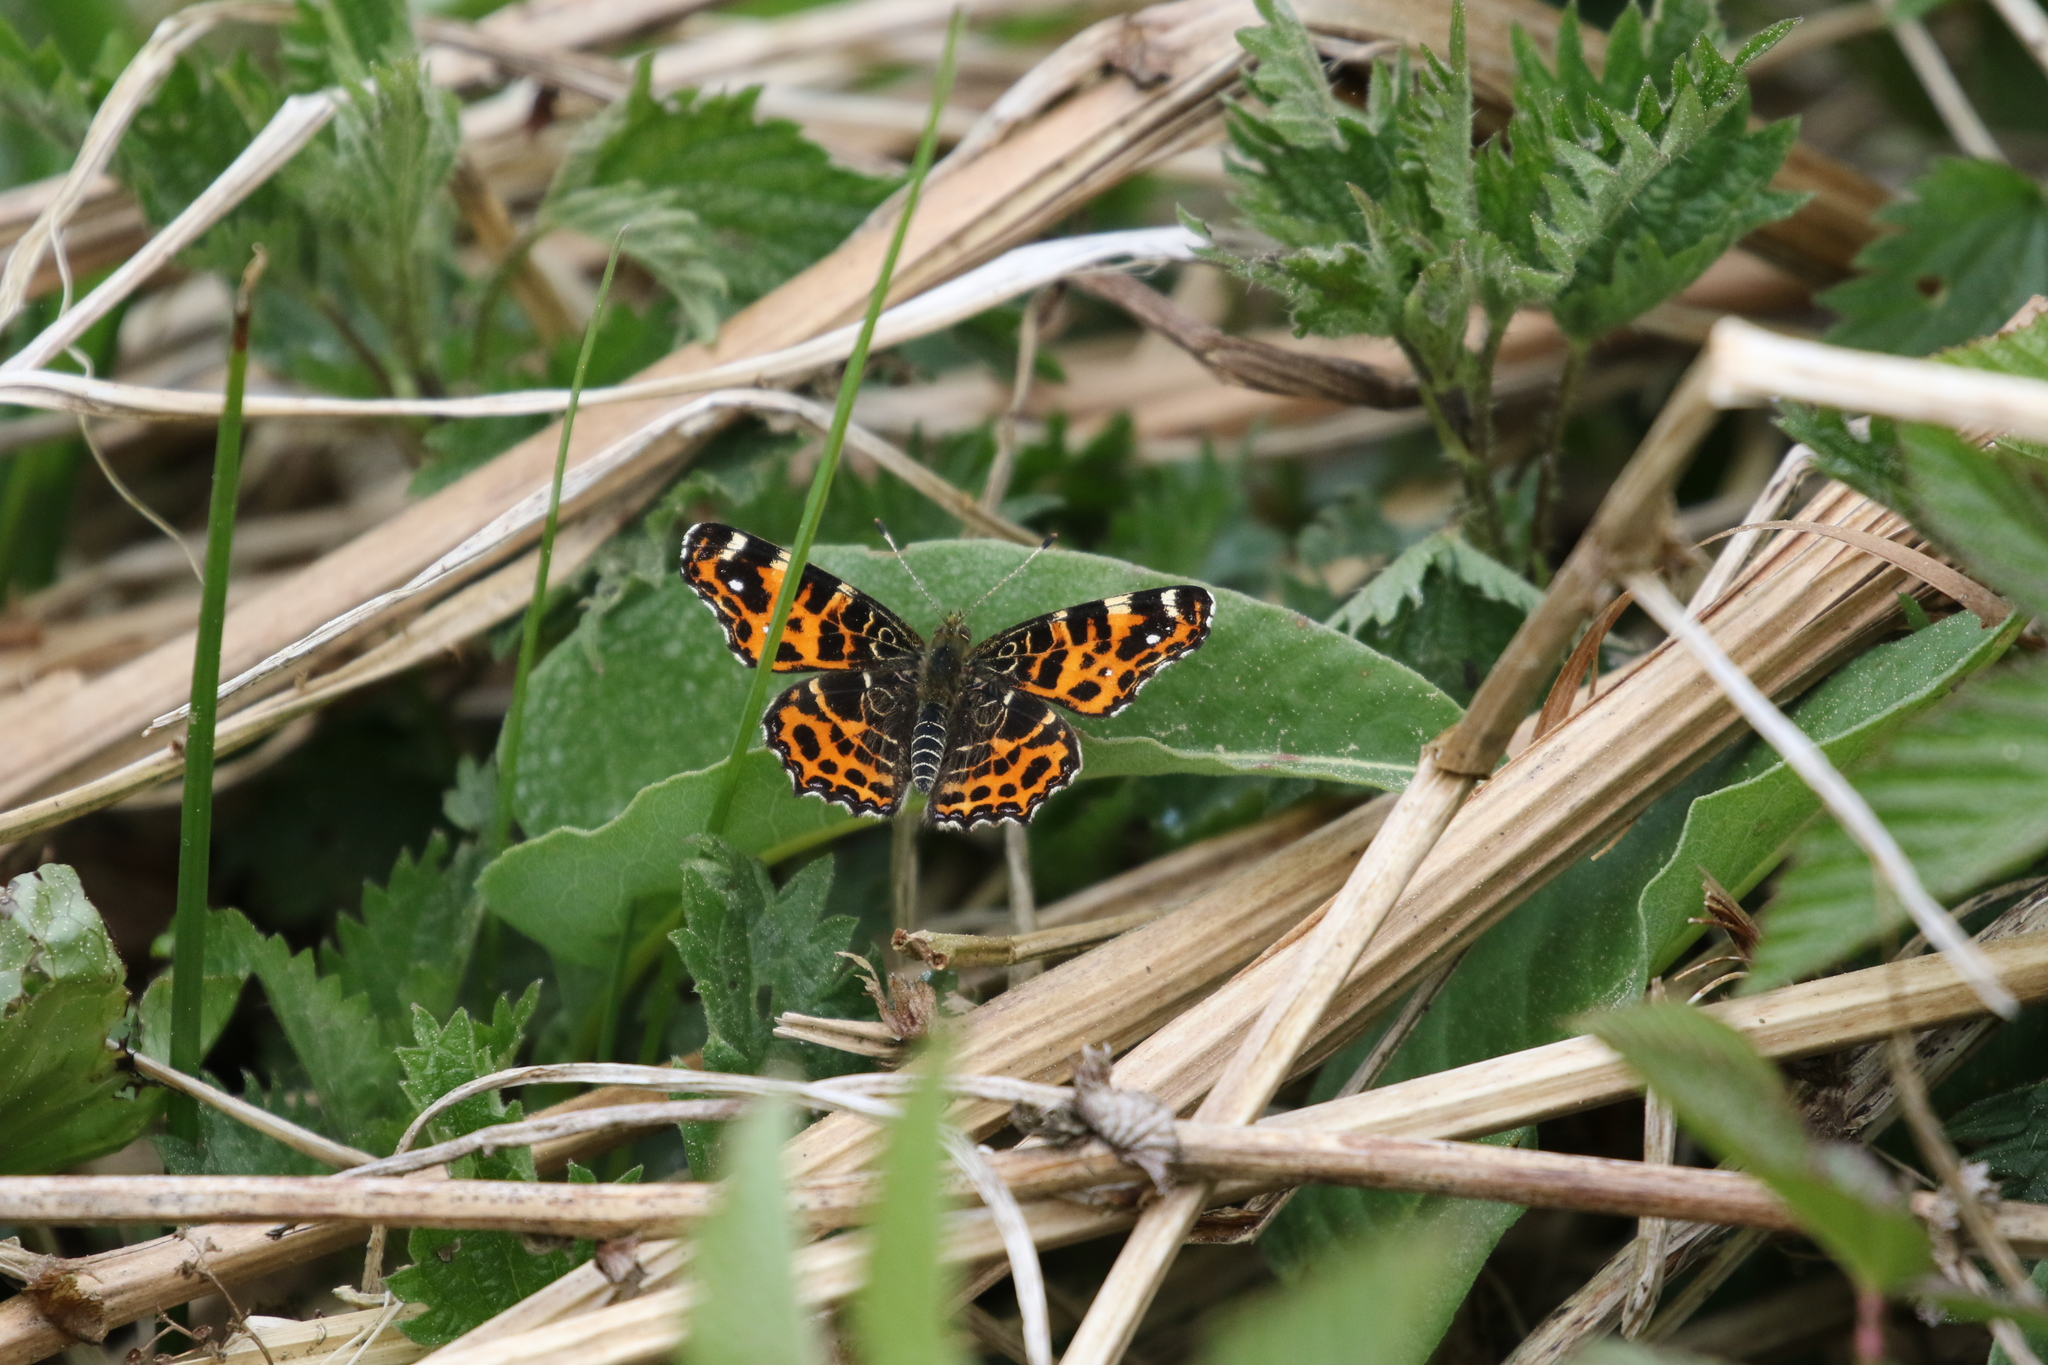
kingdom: Animalia
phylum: Arthropoda
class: Insecta
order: Lepidoptera
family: Nymphalidae
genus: Araschnia
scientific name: Araschnia levana
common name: Map butterfly
